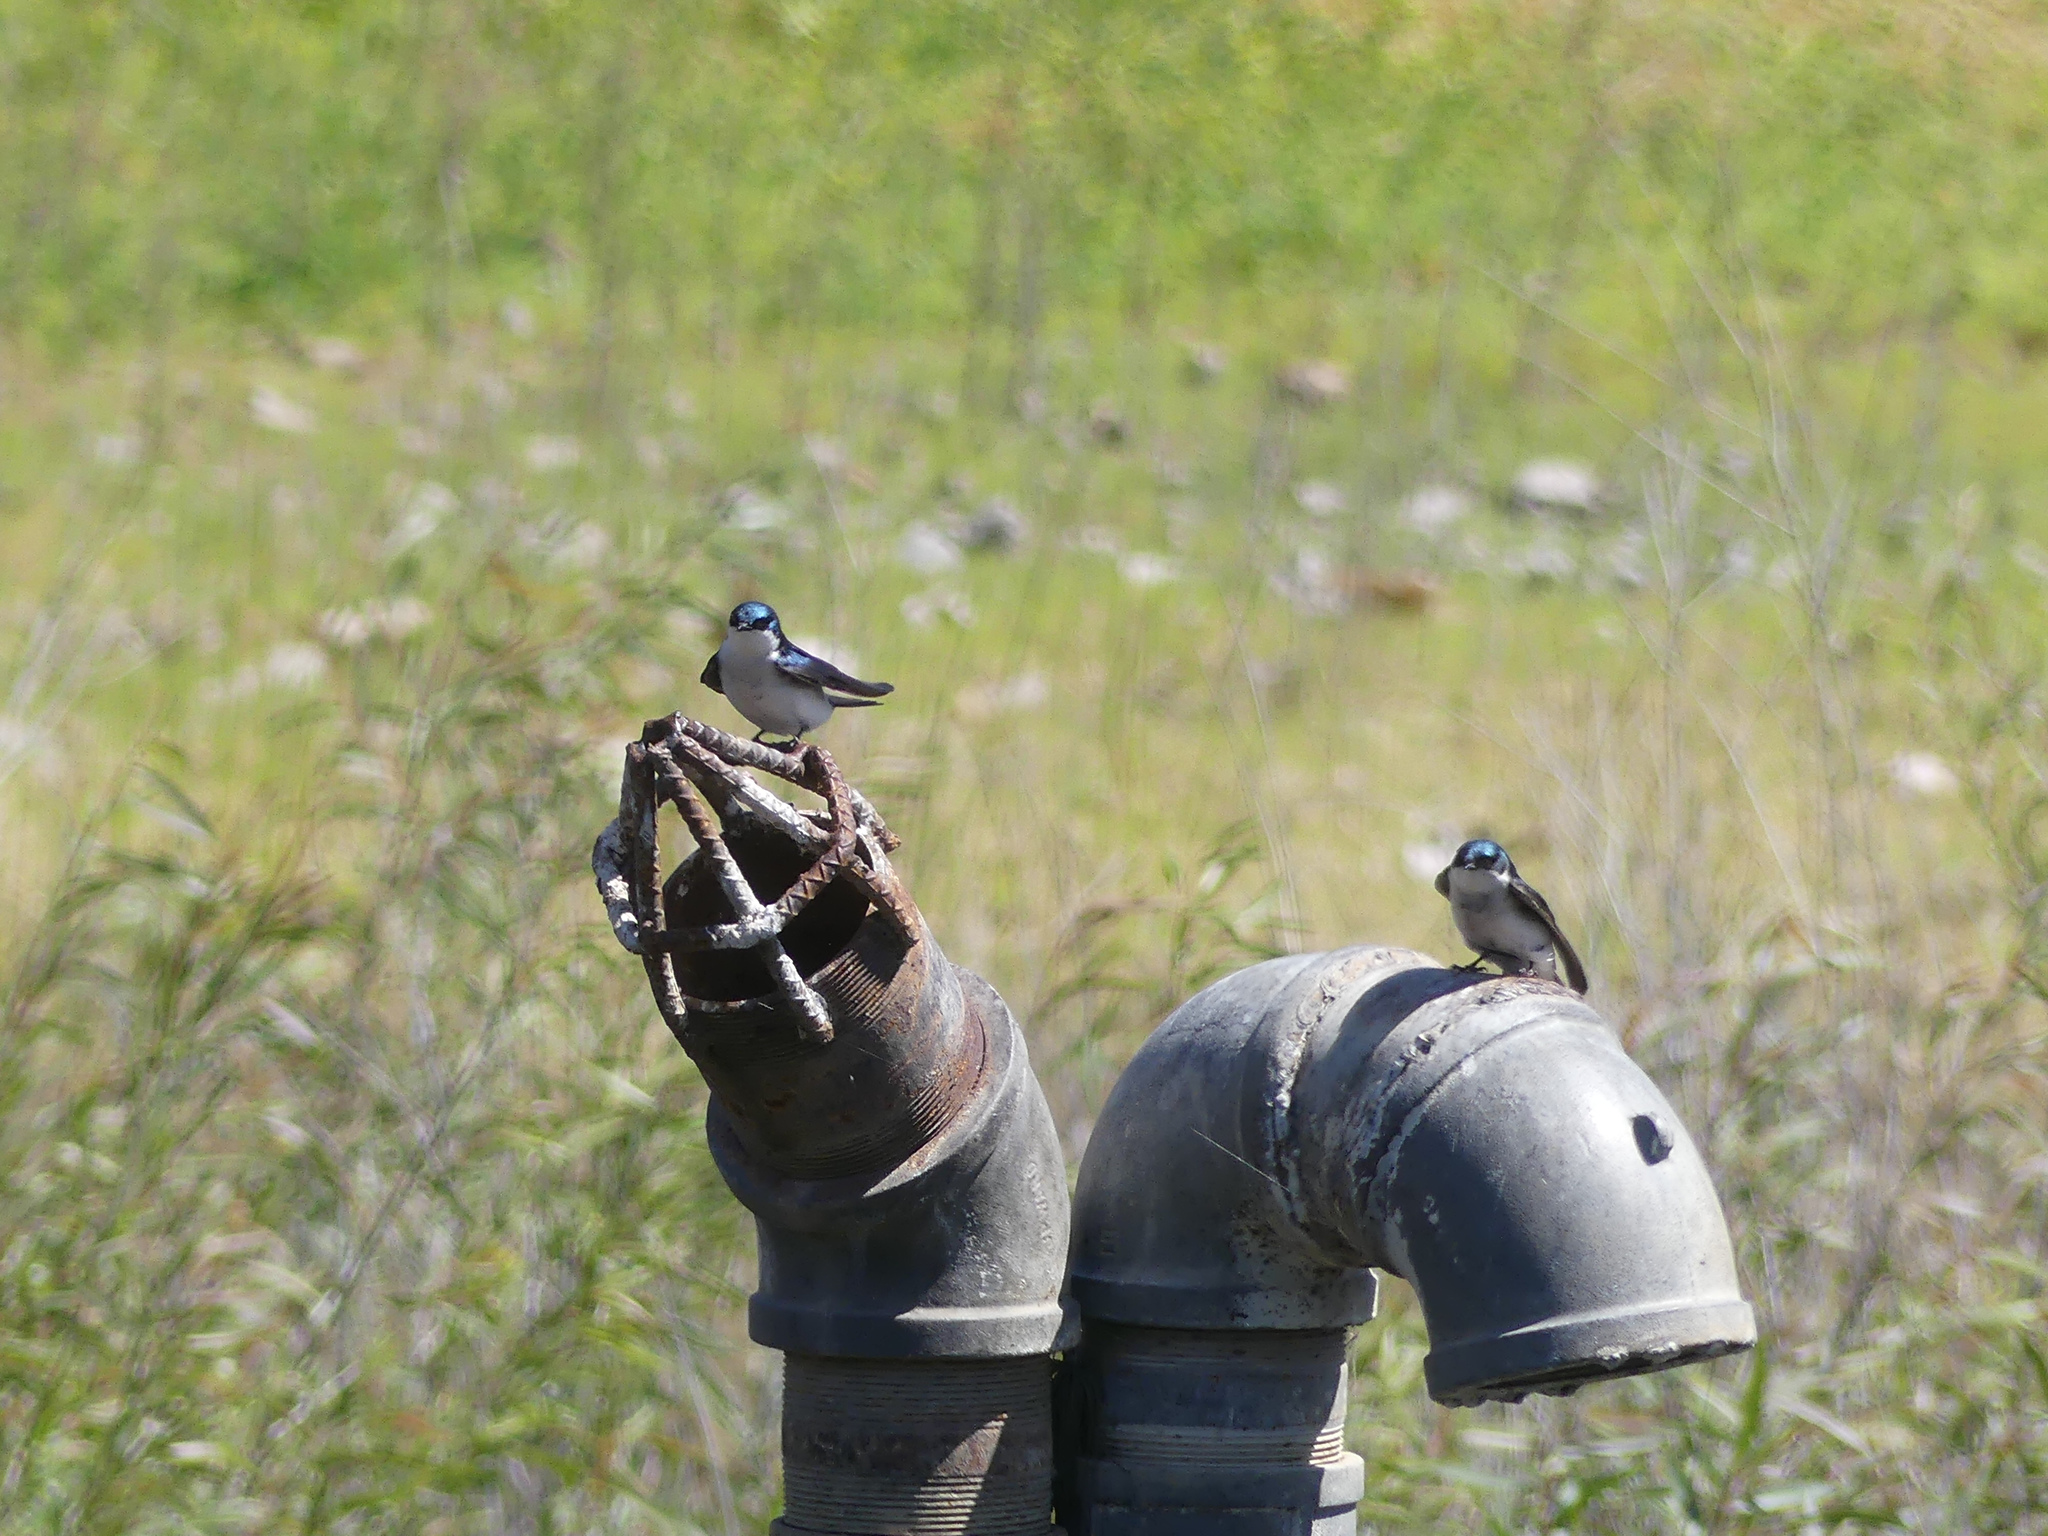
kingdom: Animalia
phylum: Chordata
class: Aves
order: Passeriformes
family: Hirundinidae
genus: Tachycineta
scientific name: Tachycineta bicolor
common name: Tree swallow
